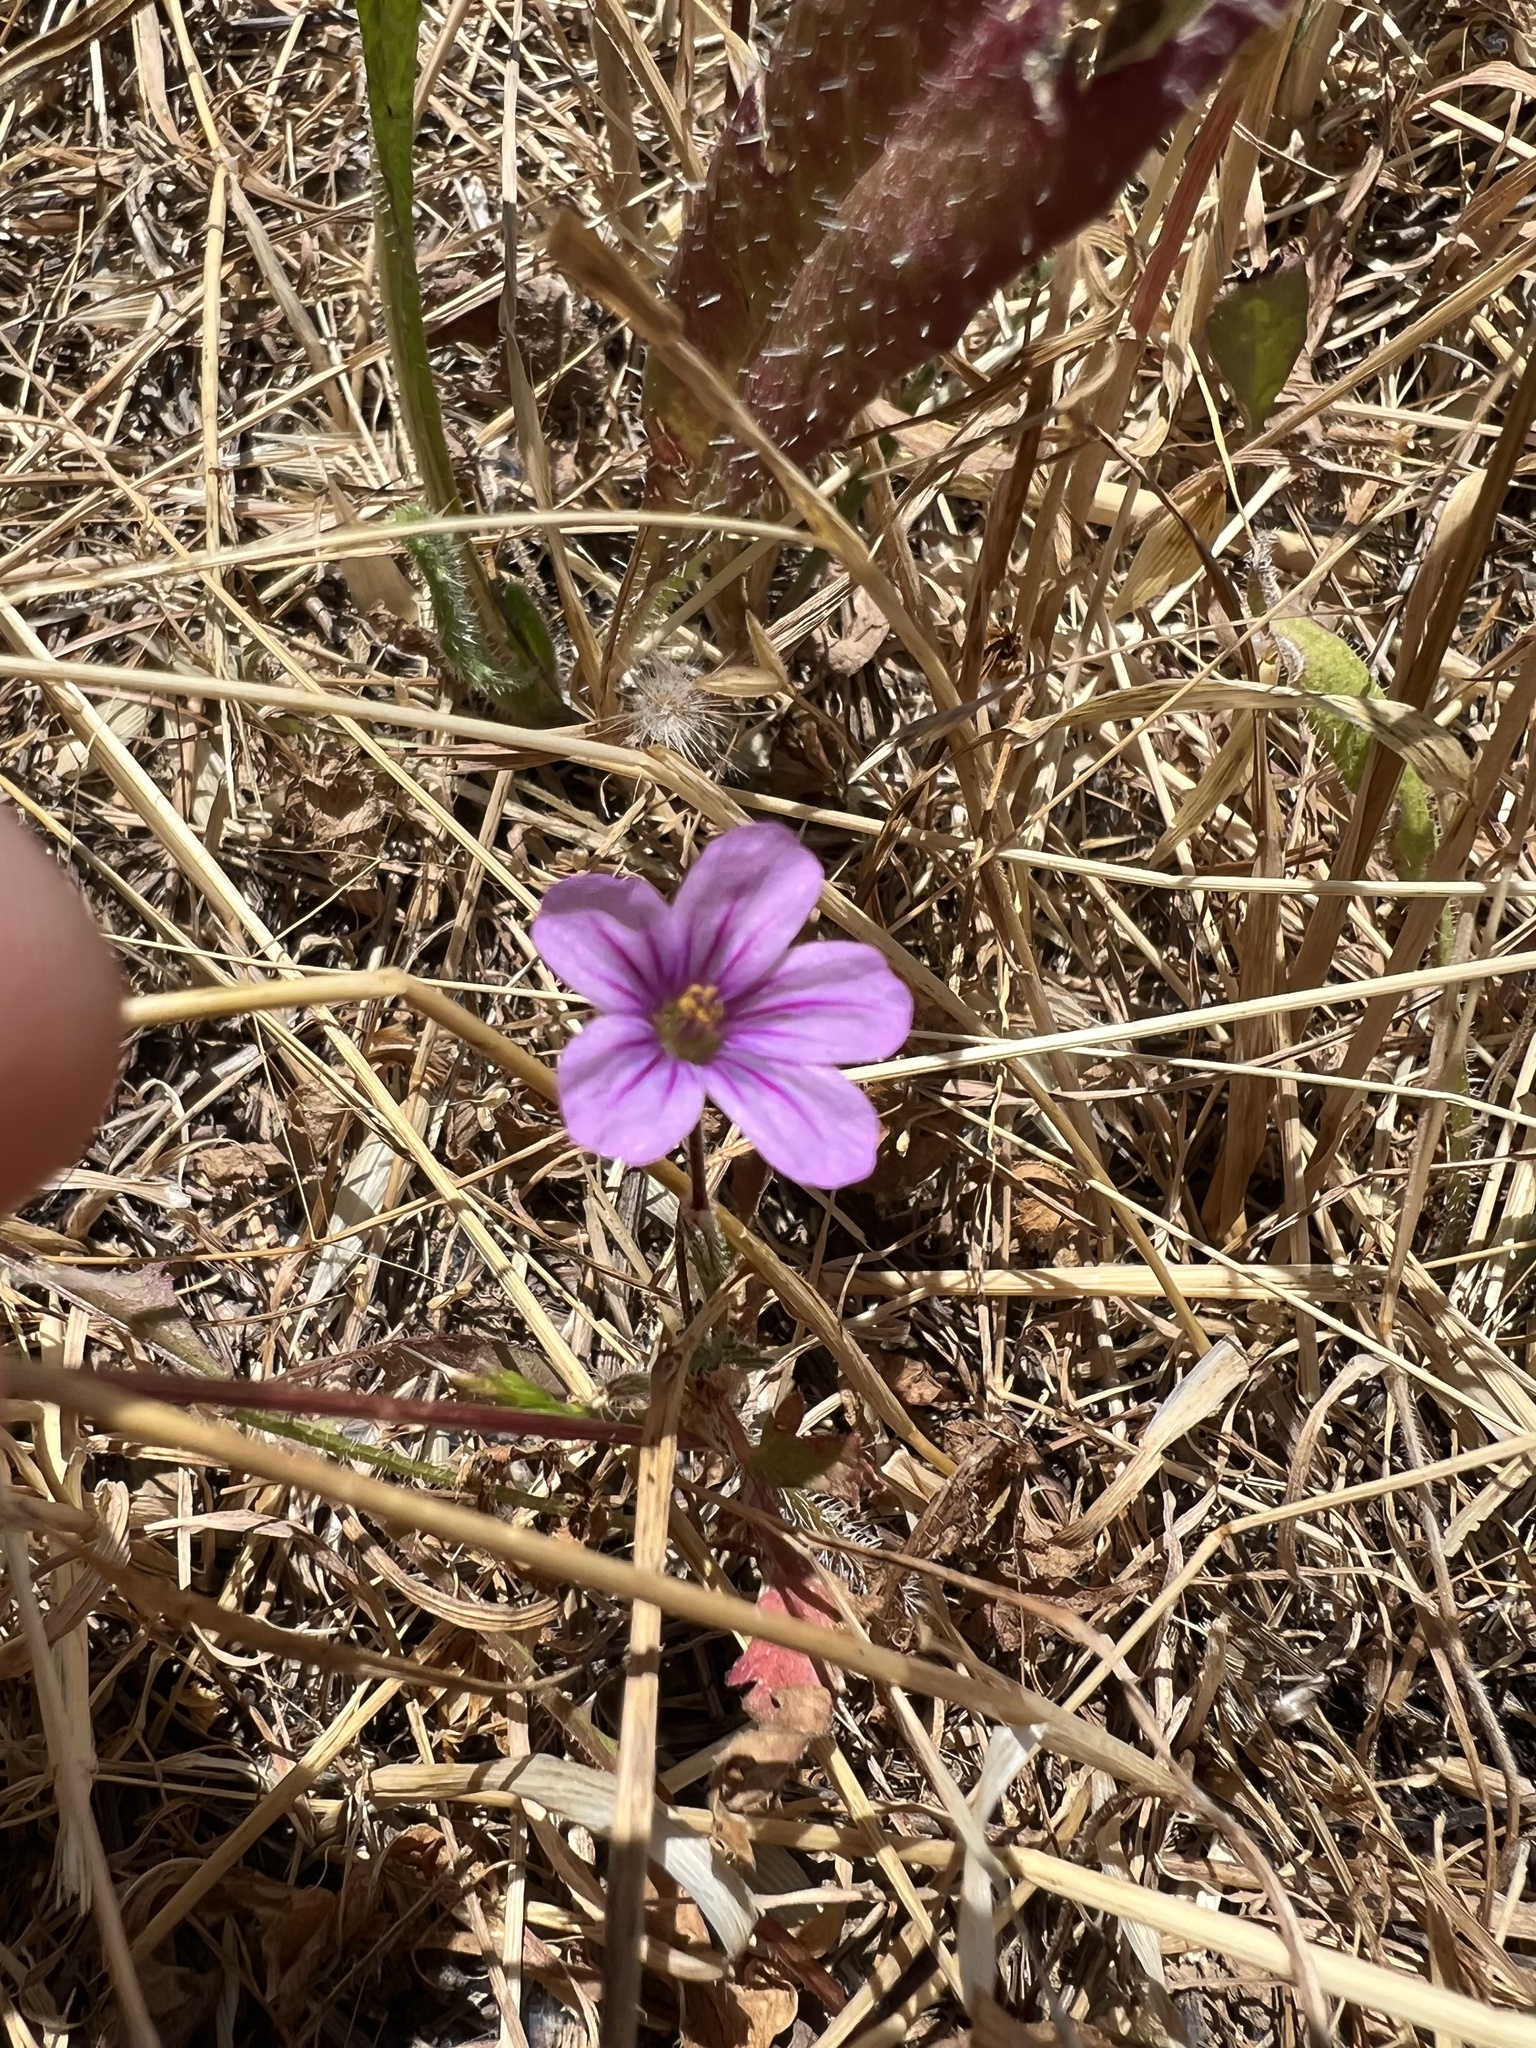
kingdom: Plantae
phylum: Tracheophyta
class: Magnoliopsida
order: Geraniales
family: Geraniaceae
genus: Erodium
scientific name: Erodium botrys
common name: Mediterranean stork's-bill
